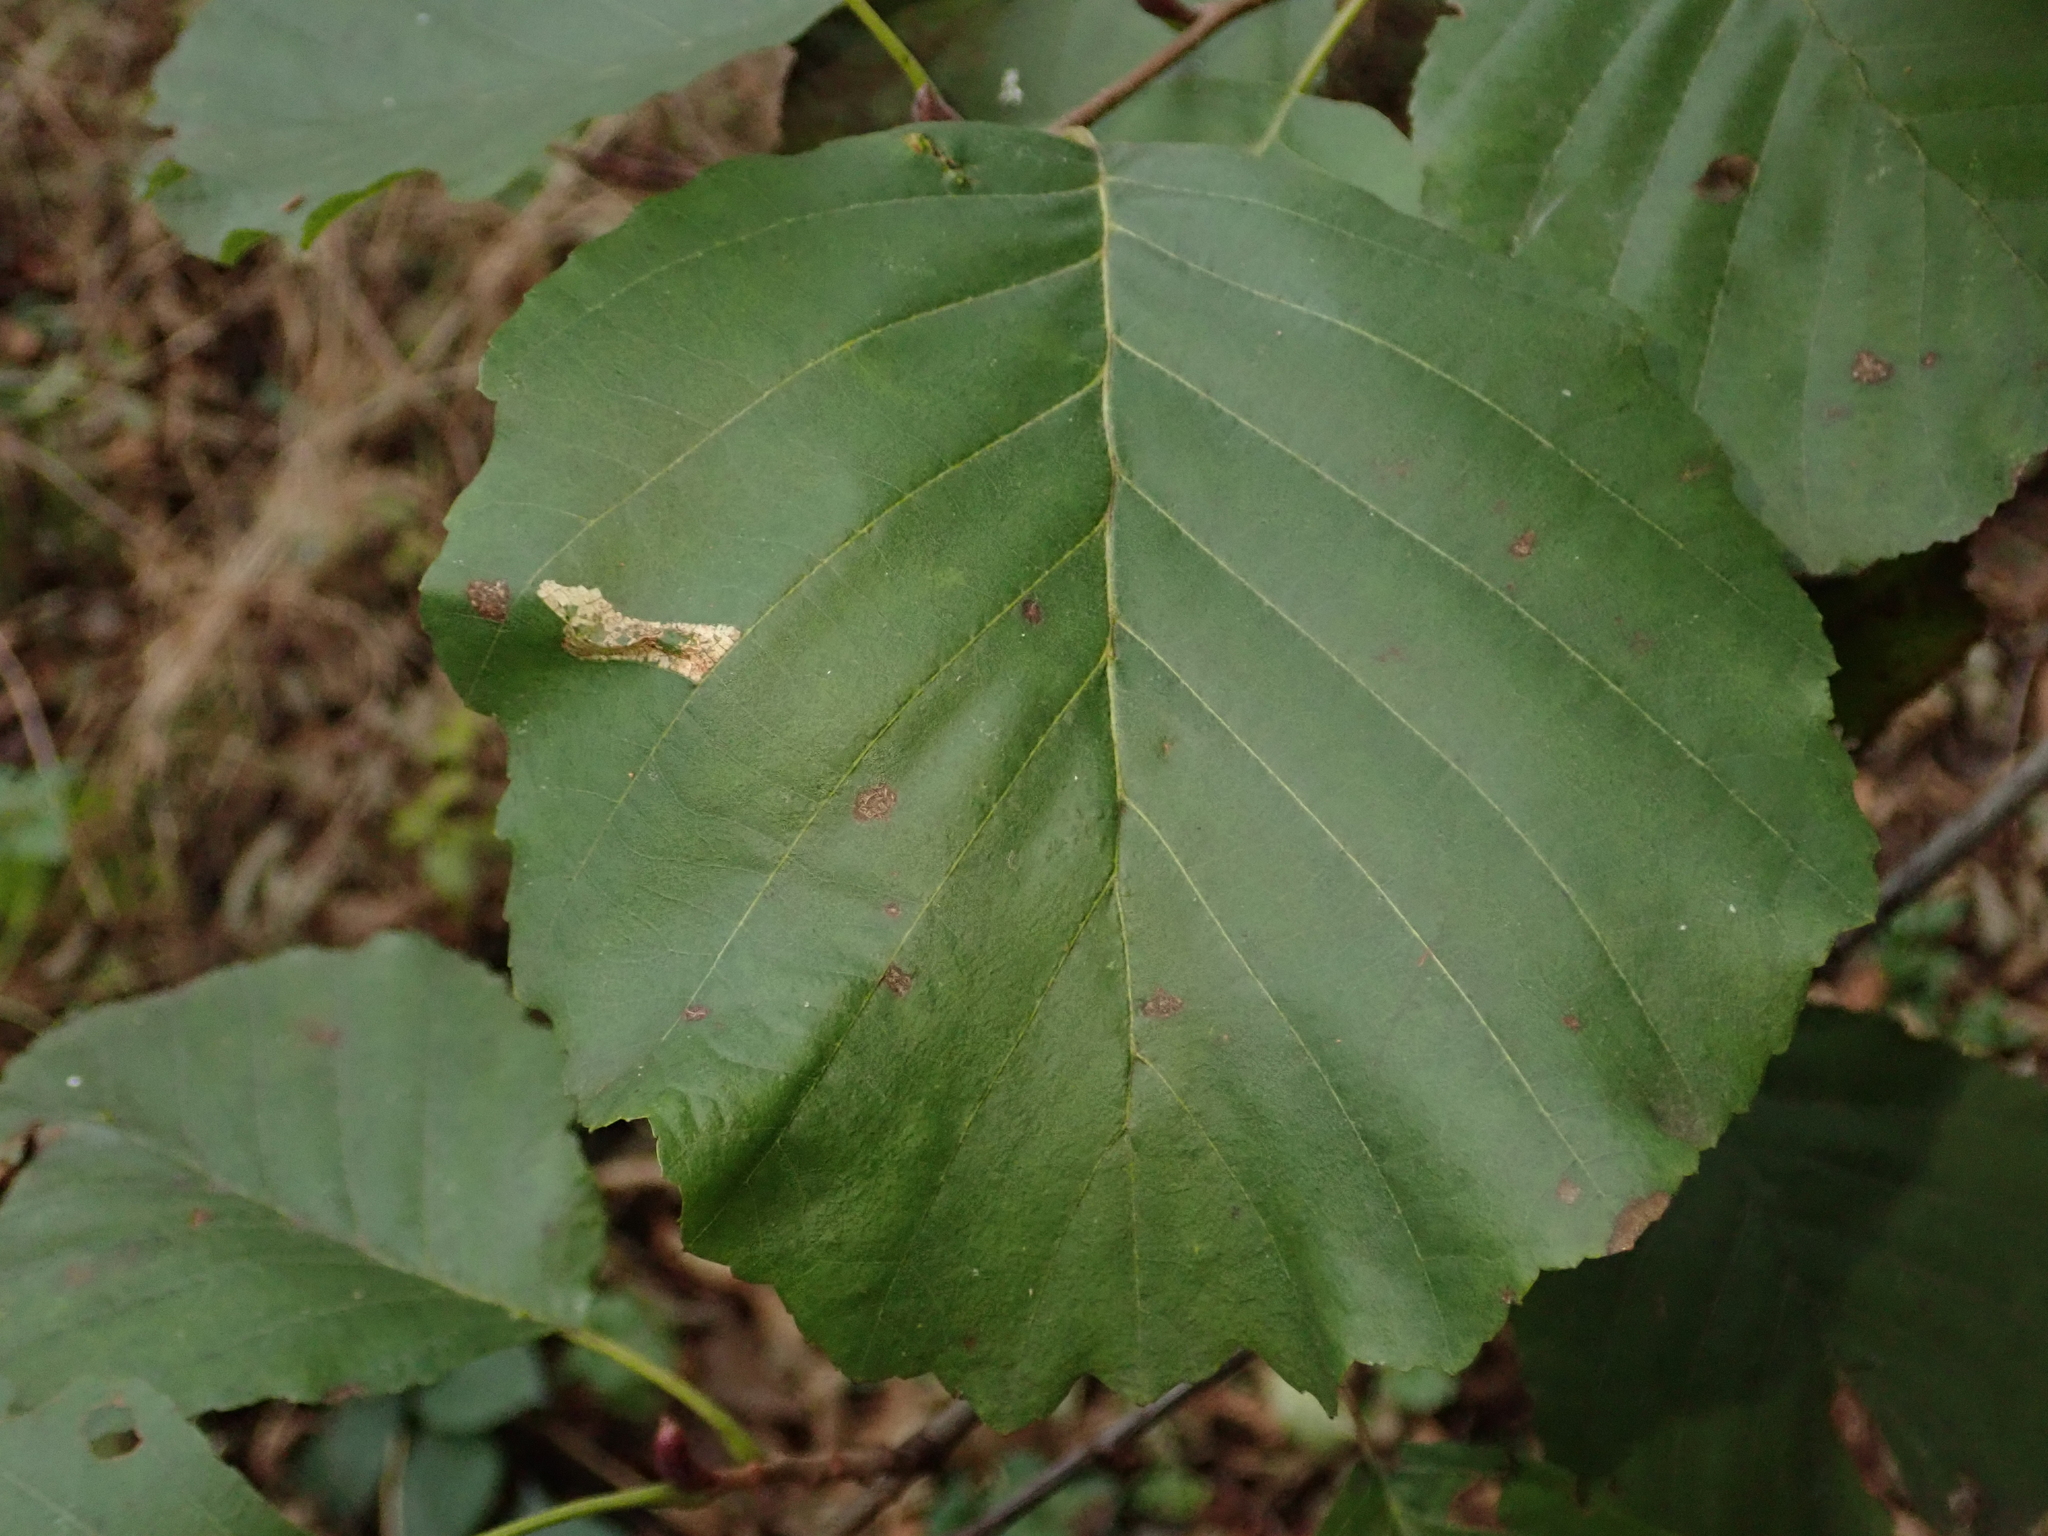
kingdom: Plantae
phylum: Tracheophyta
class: Magnoliopsida
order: Fagales
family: Betulaceae
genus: Alnus
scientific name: Alnus glutinosa
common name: Black alder
